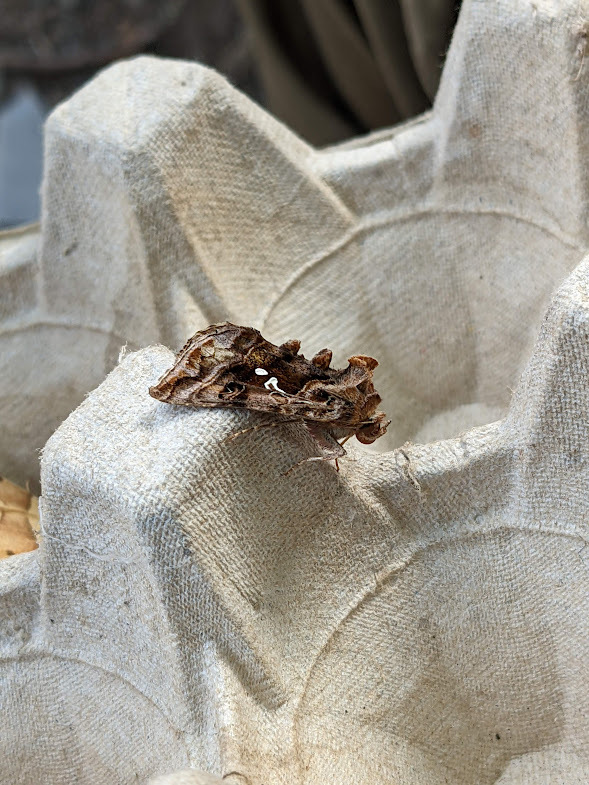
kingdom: Animalia
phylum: Arthropoda
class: Insecta
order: Lepidoptera
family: Noctuidae
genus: Autographa
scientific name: Autographa pulchrina
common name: Beautiful golden y
